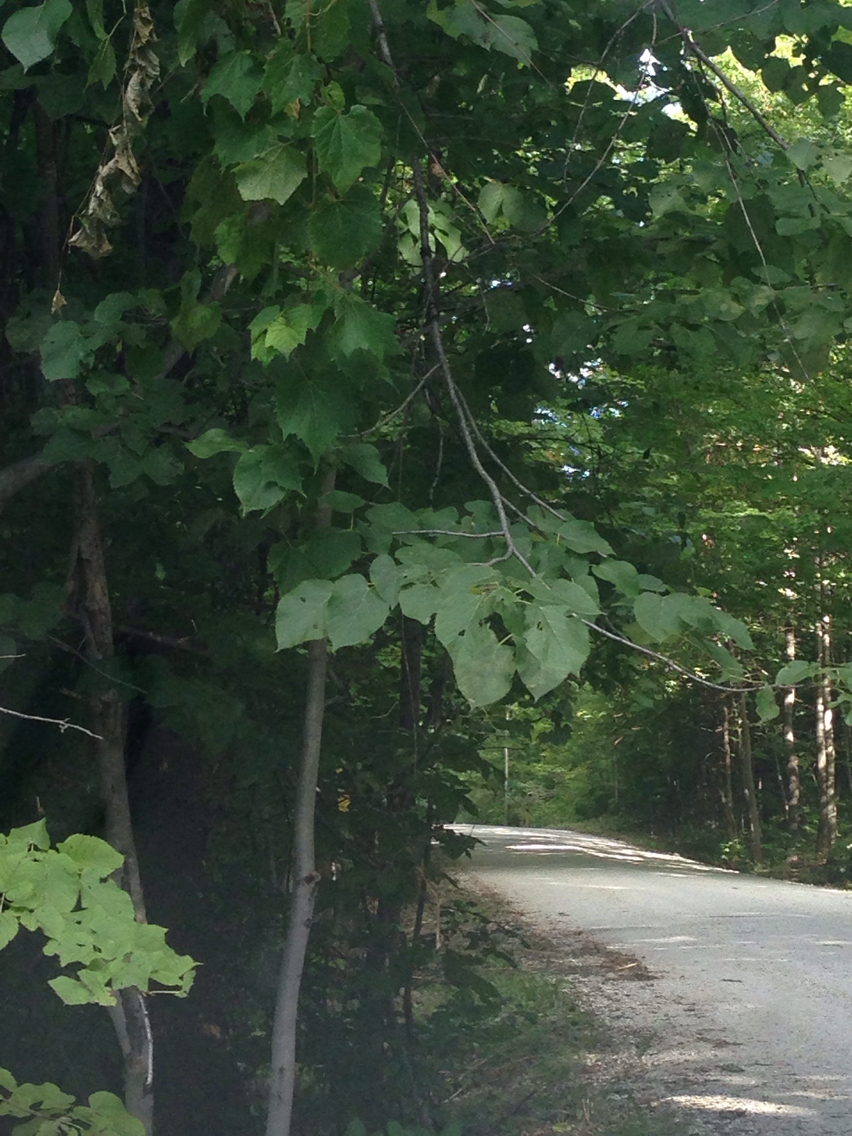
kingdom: Plantae
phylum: Tracheophyta
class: Magnoliopsida
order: Malvales
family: Malvaceae
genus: Tilia
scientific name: Tilia americana
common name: Basswood
